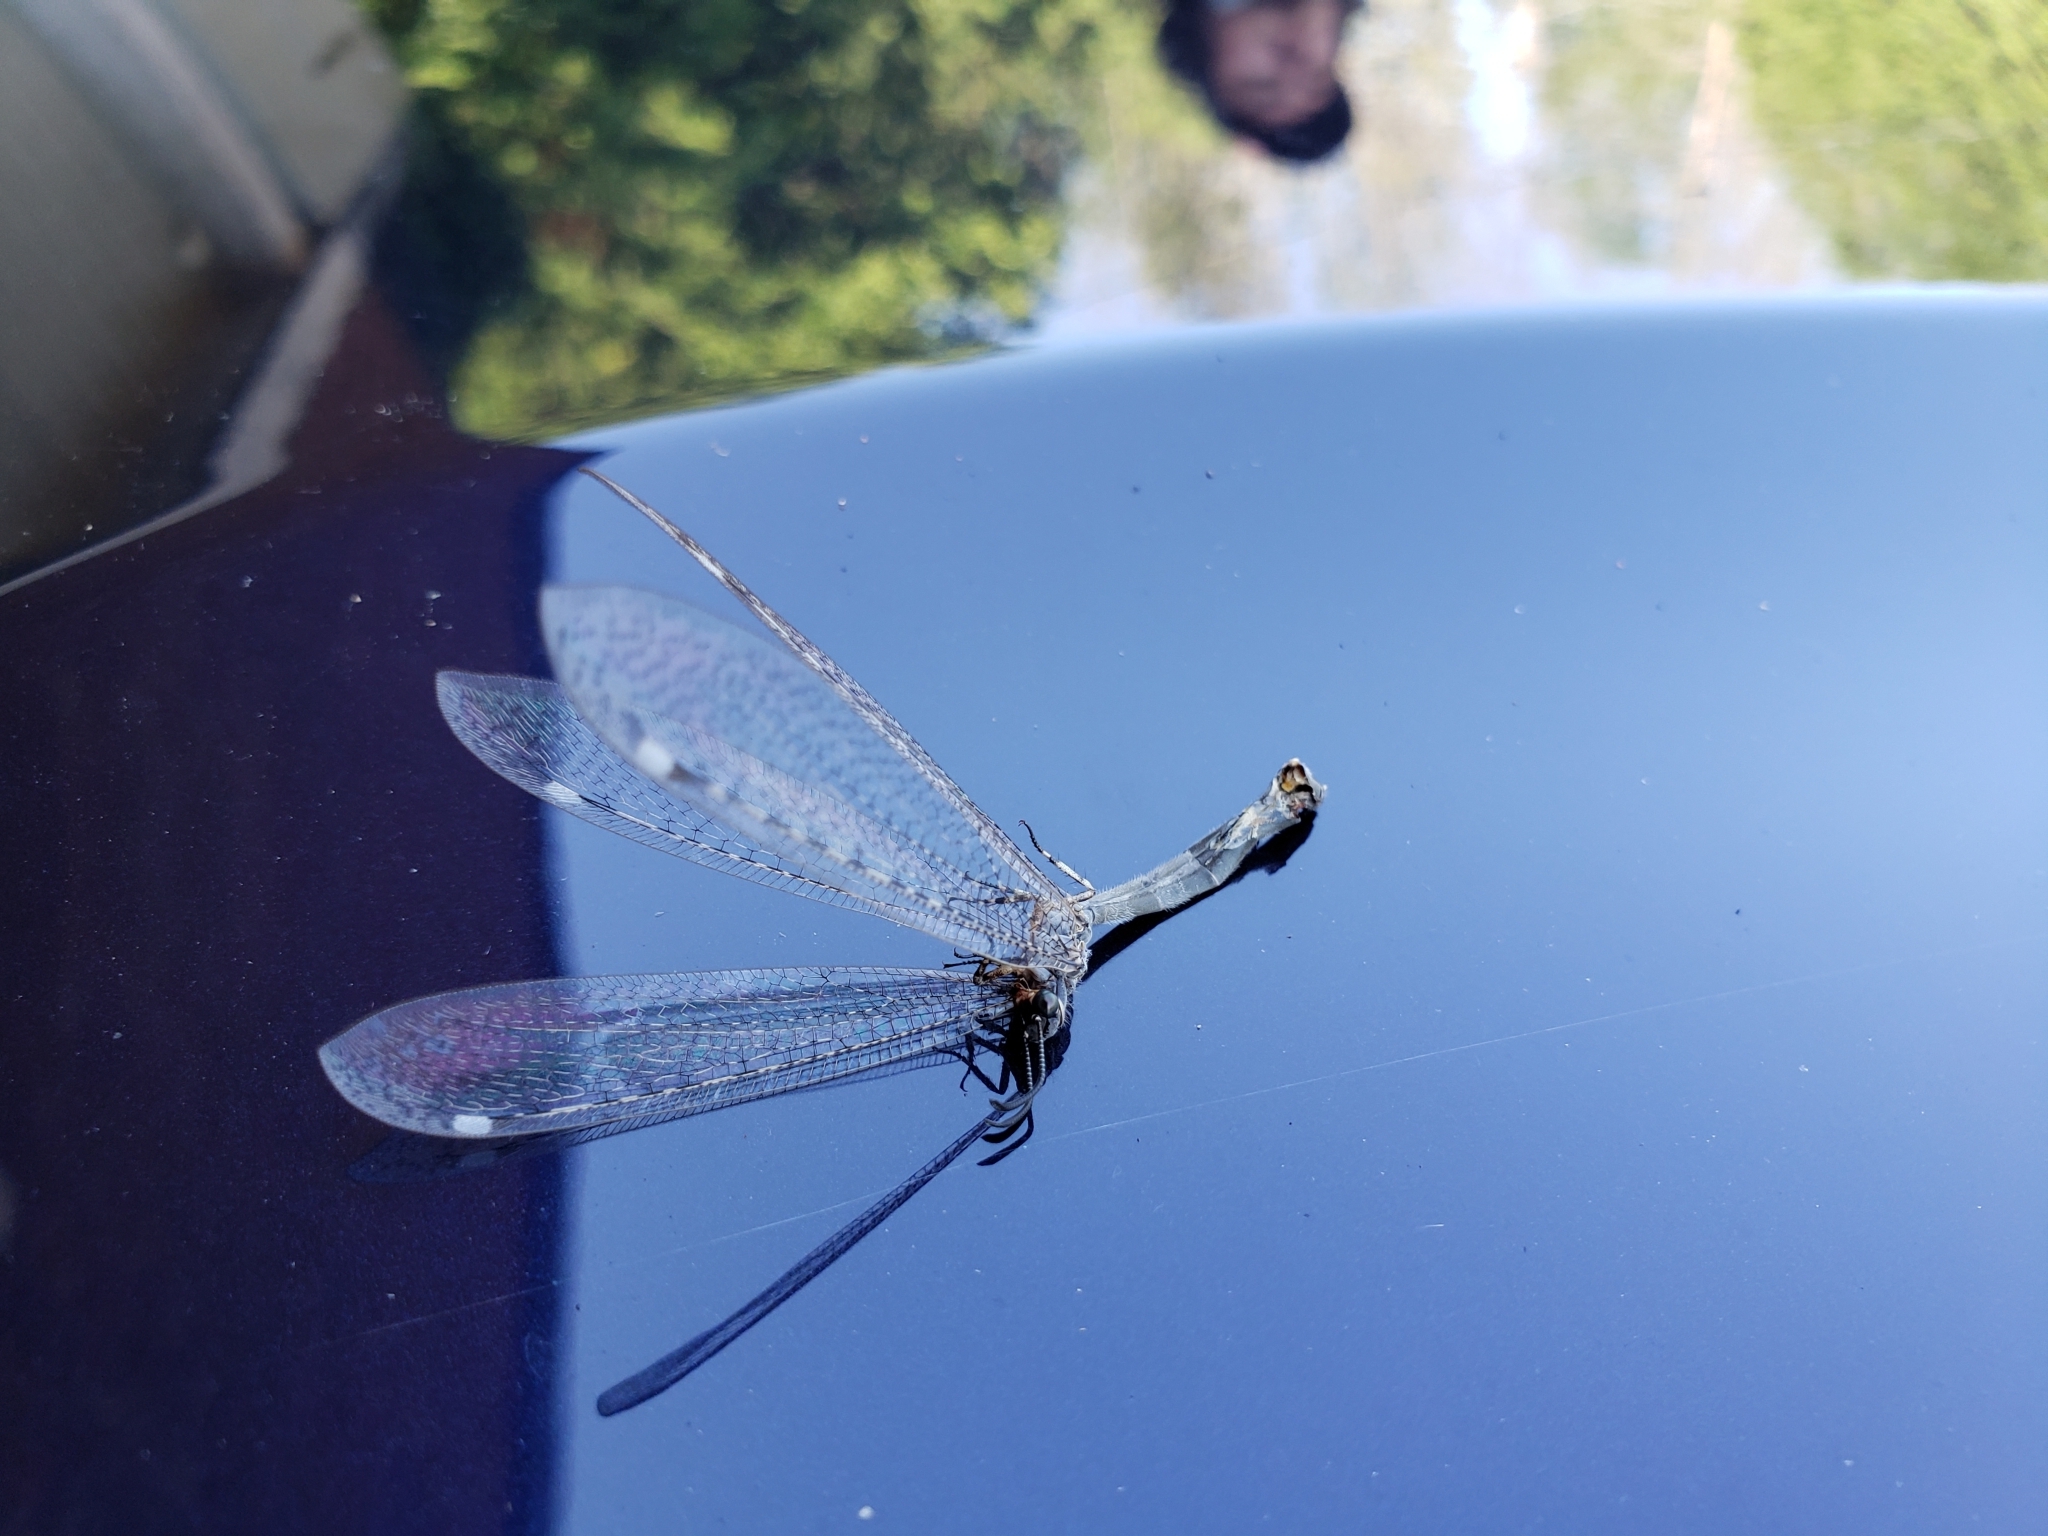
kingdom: Animalia
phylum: Arthropoda
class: Insecta
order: Neuroptera
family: Myrmeleontidae
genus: Myrmeleon
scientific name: Myrmeleon immaculatus
